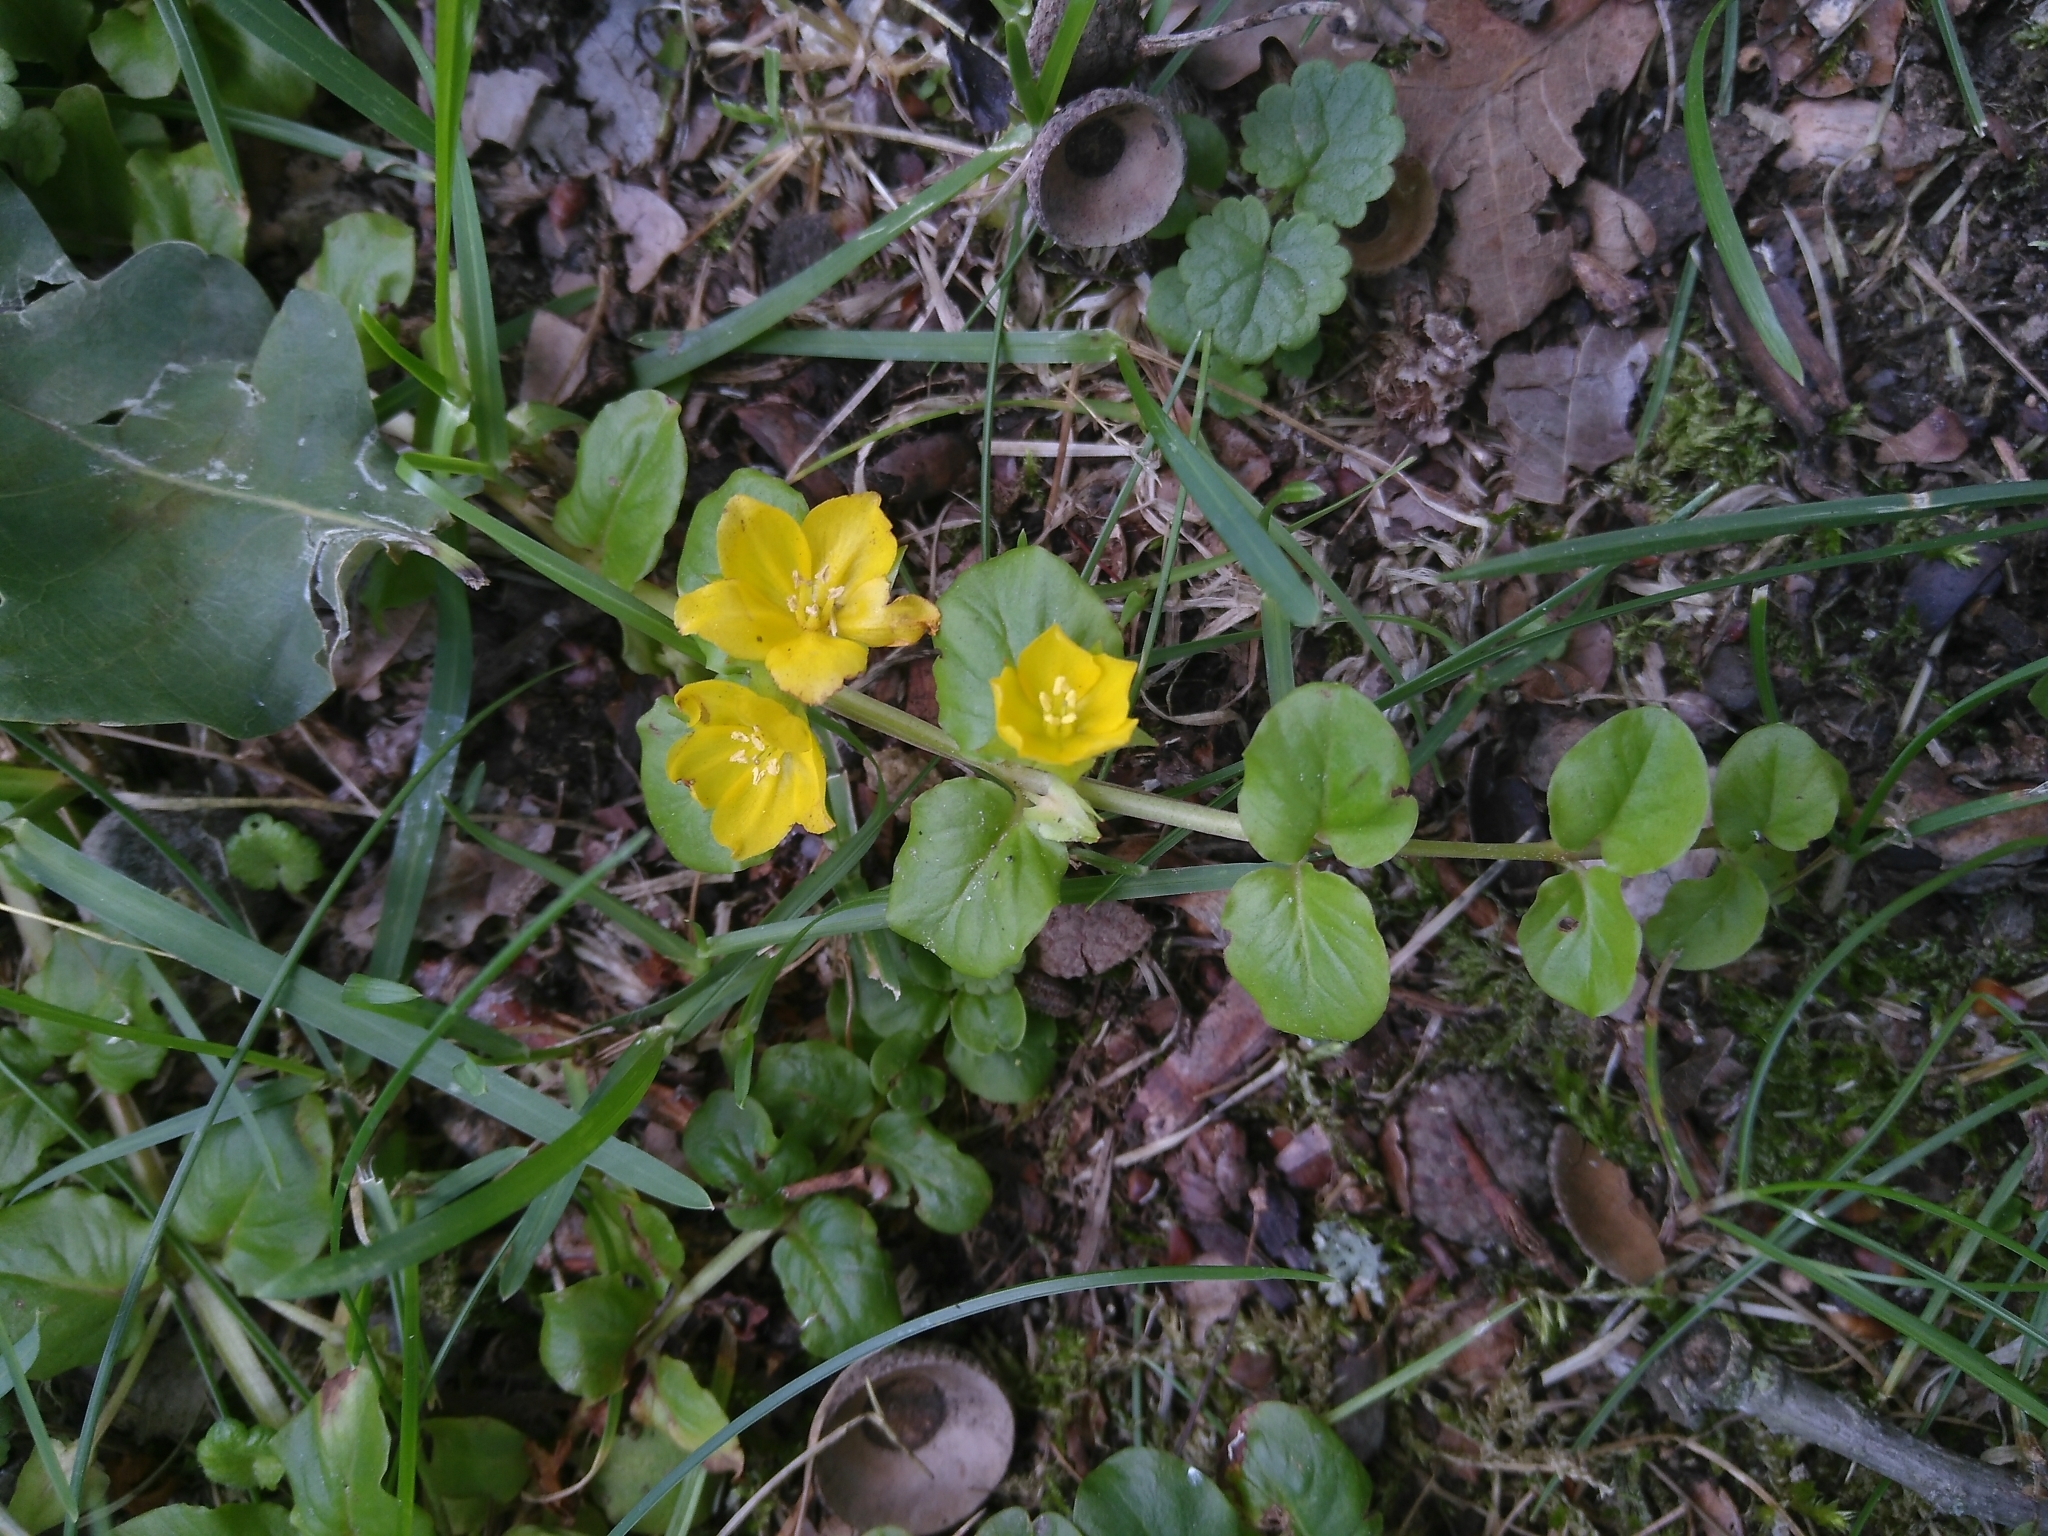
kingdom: Plantae
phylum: Tracheophyta
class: Magnoliopsida
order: Ericales
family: Primulaceae
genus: Lysimachia
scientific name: Lysimachia nummularia
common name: Moneywort
